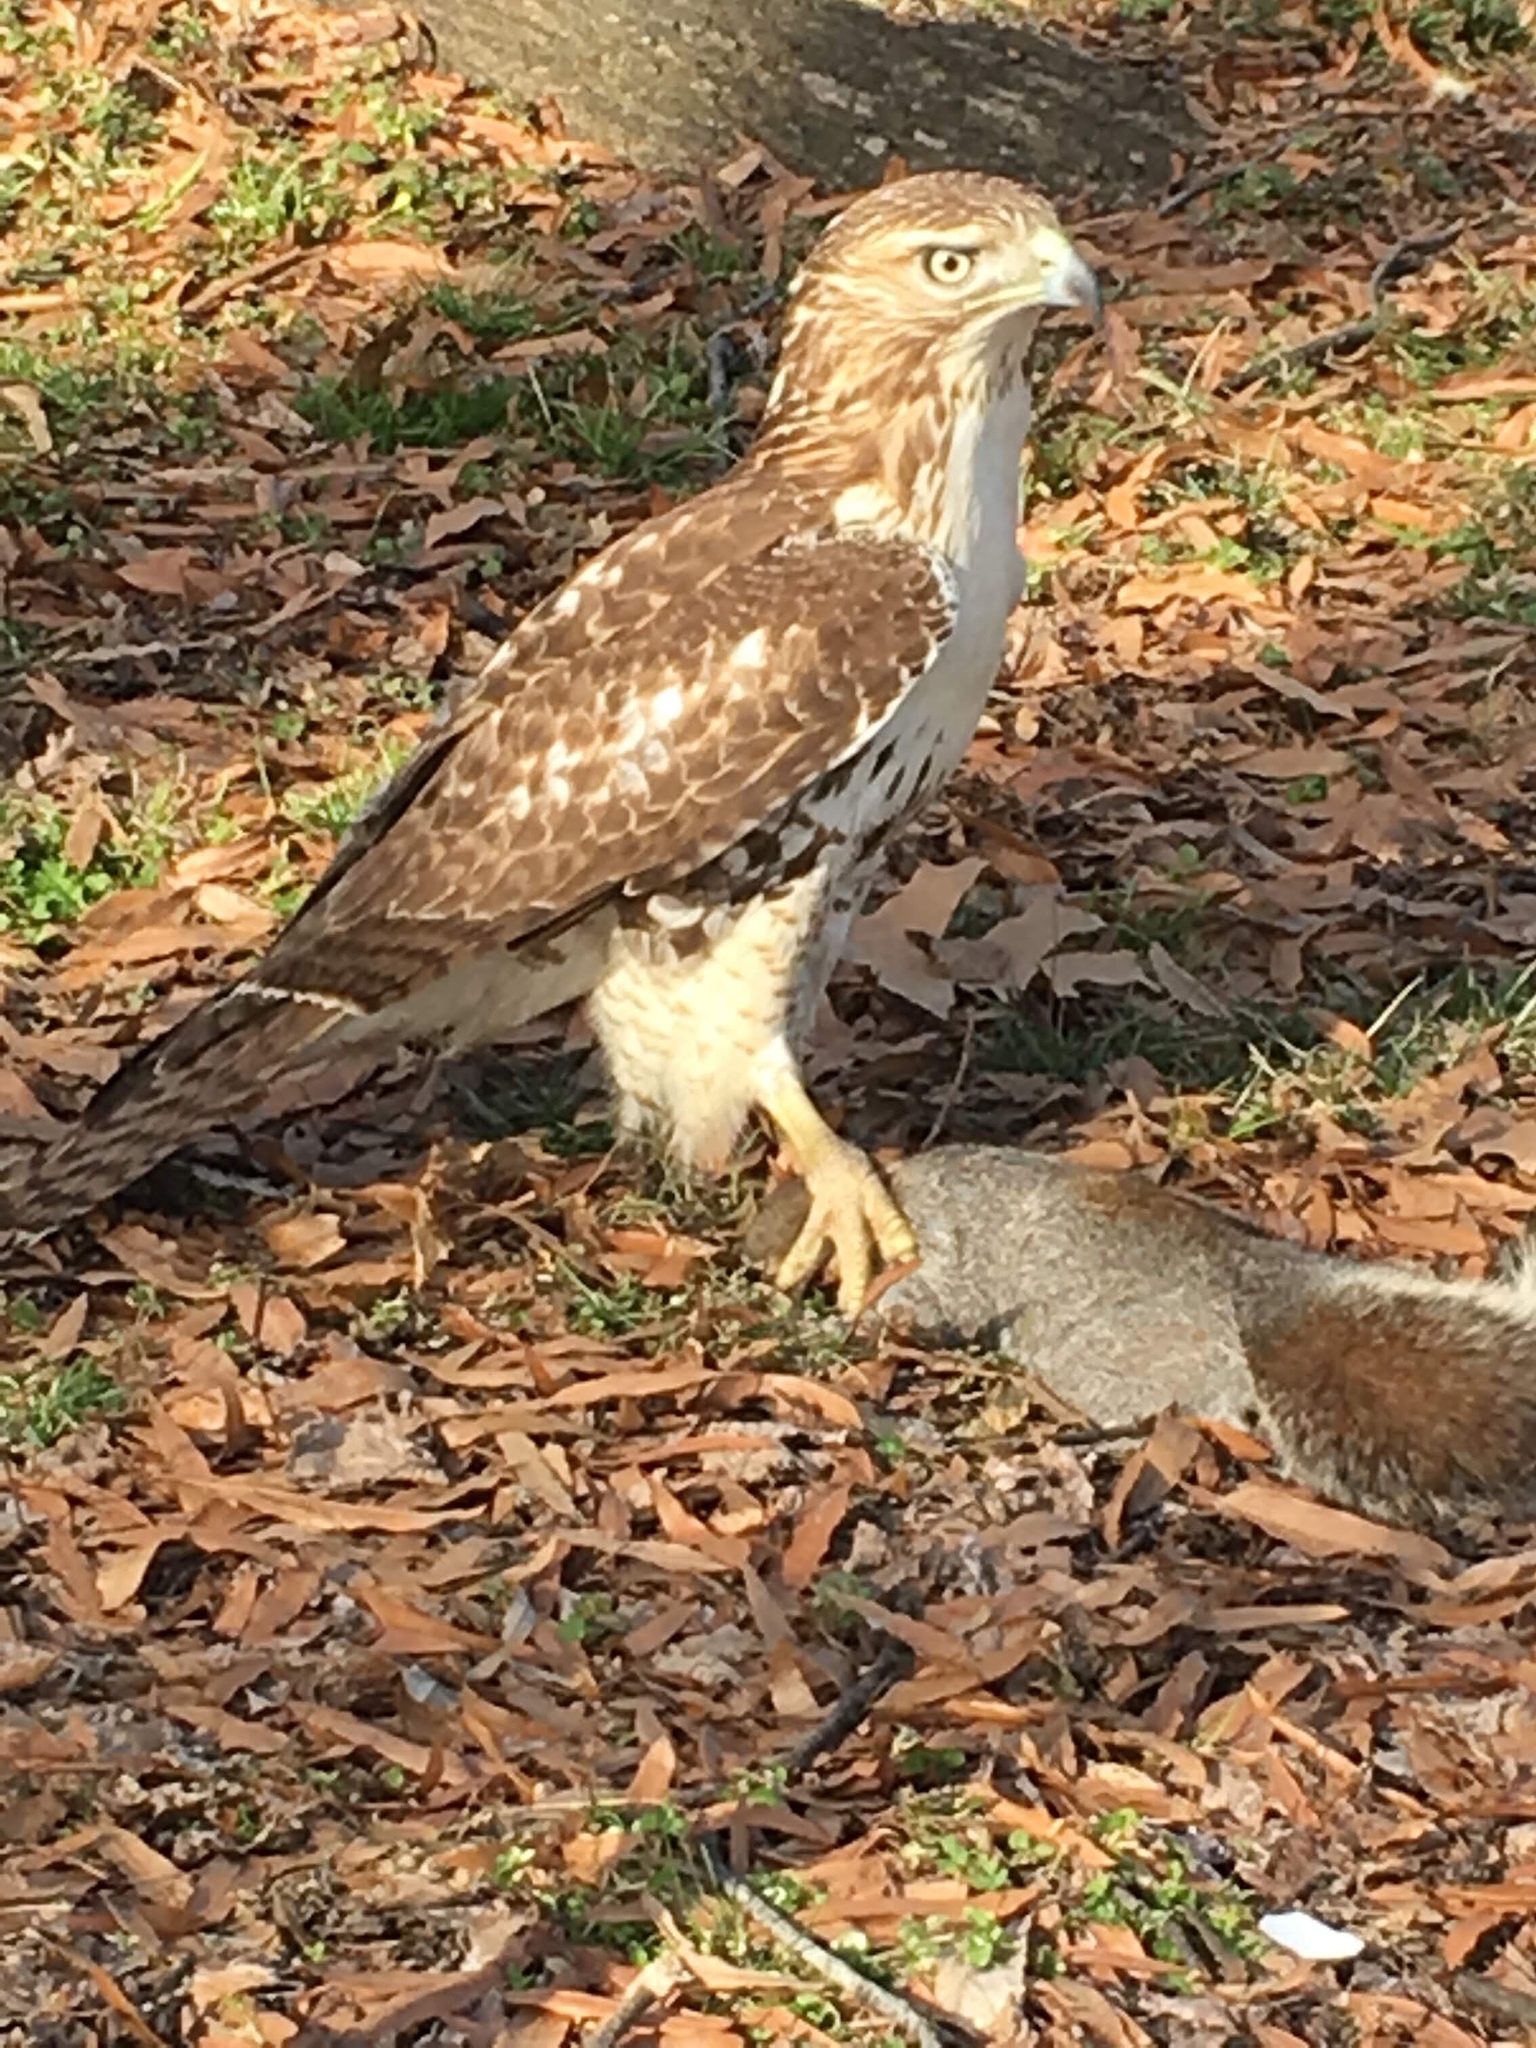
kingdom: Animalia
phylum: Chordata
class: Aves
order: Accipitriformes
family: Accipitridae
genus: Buteo
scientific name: Buteo jamaicensis
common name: Red-tailed hawk
